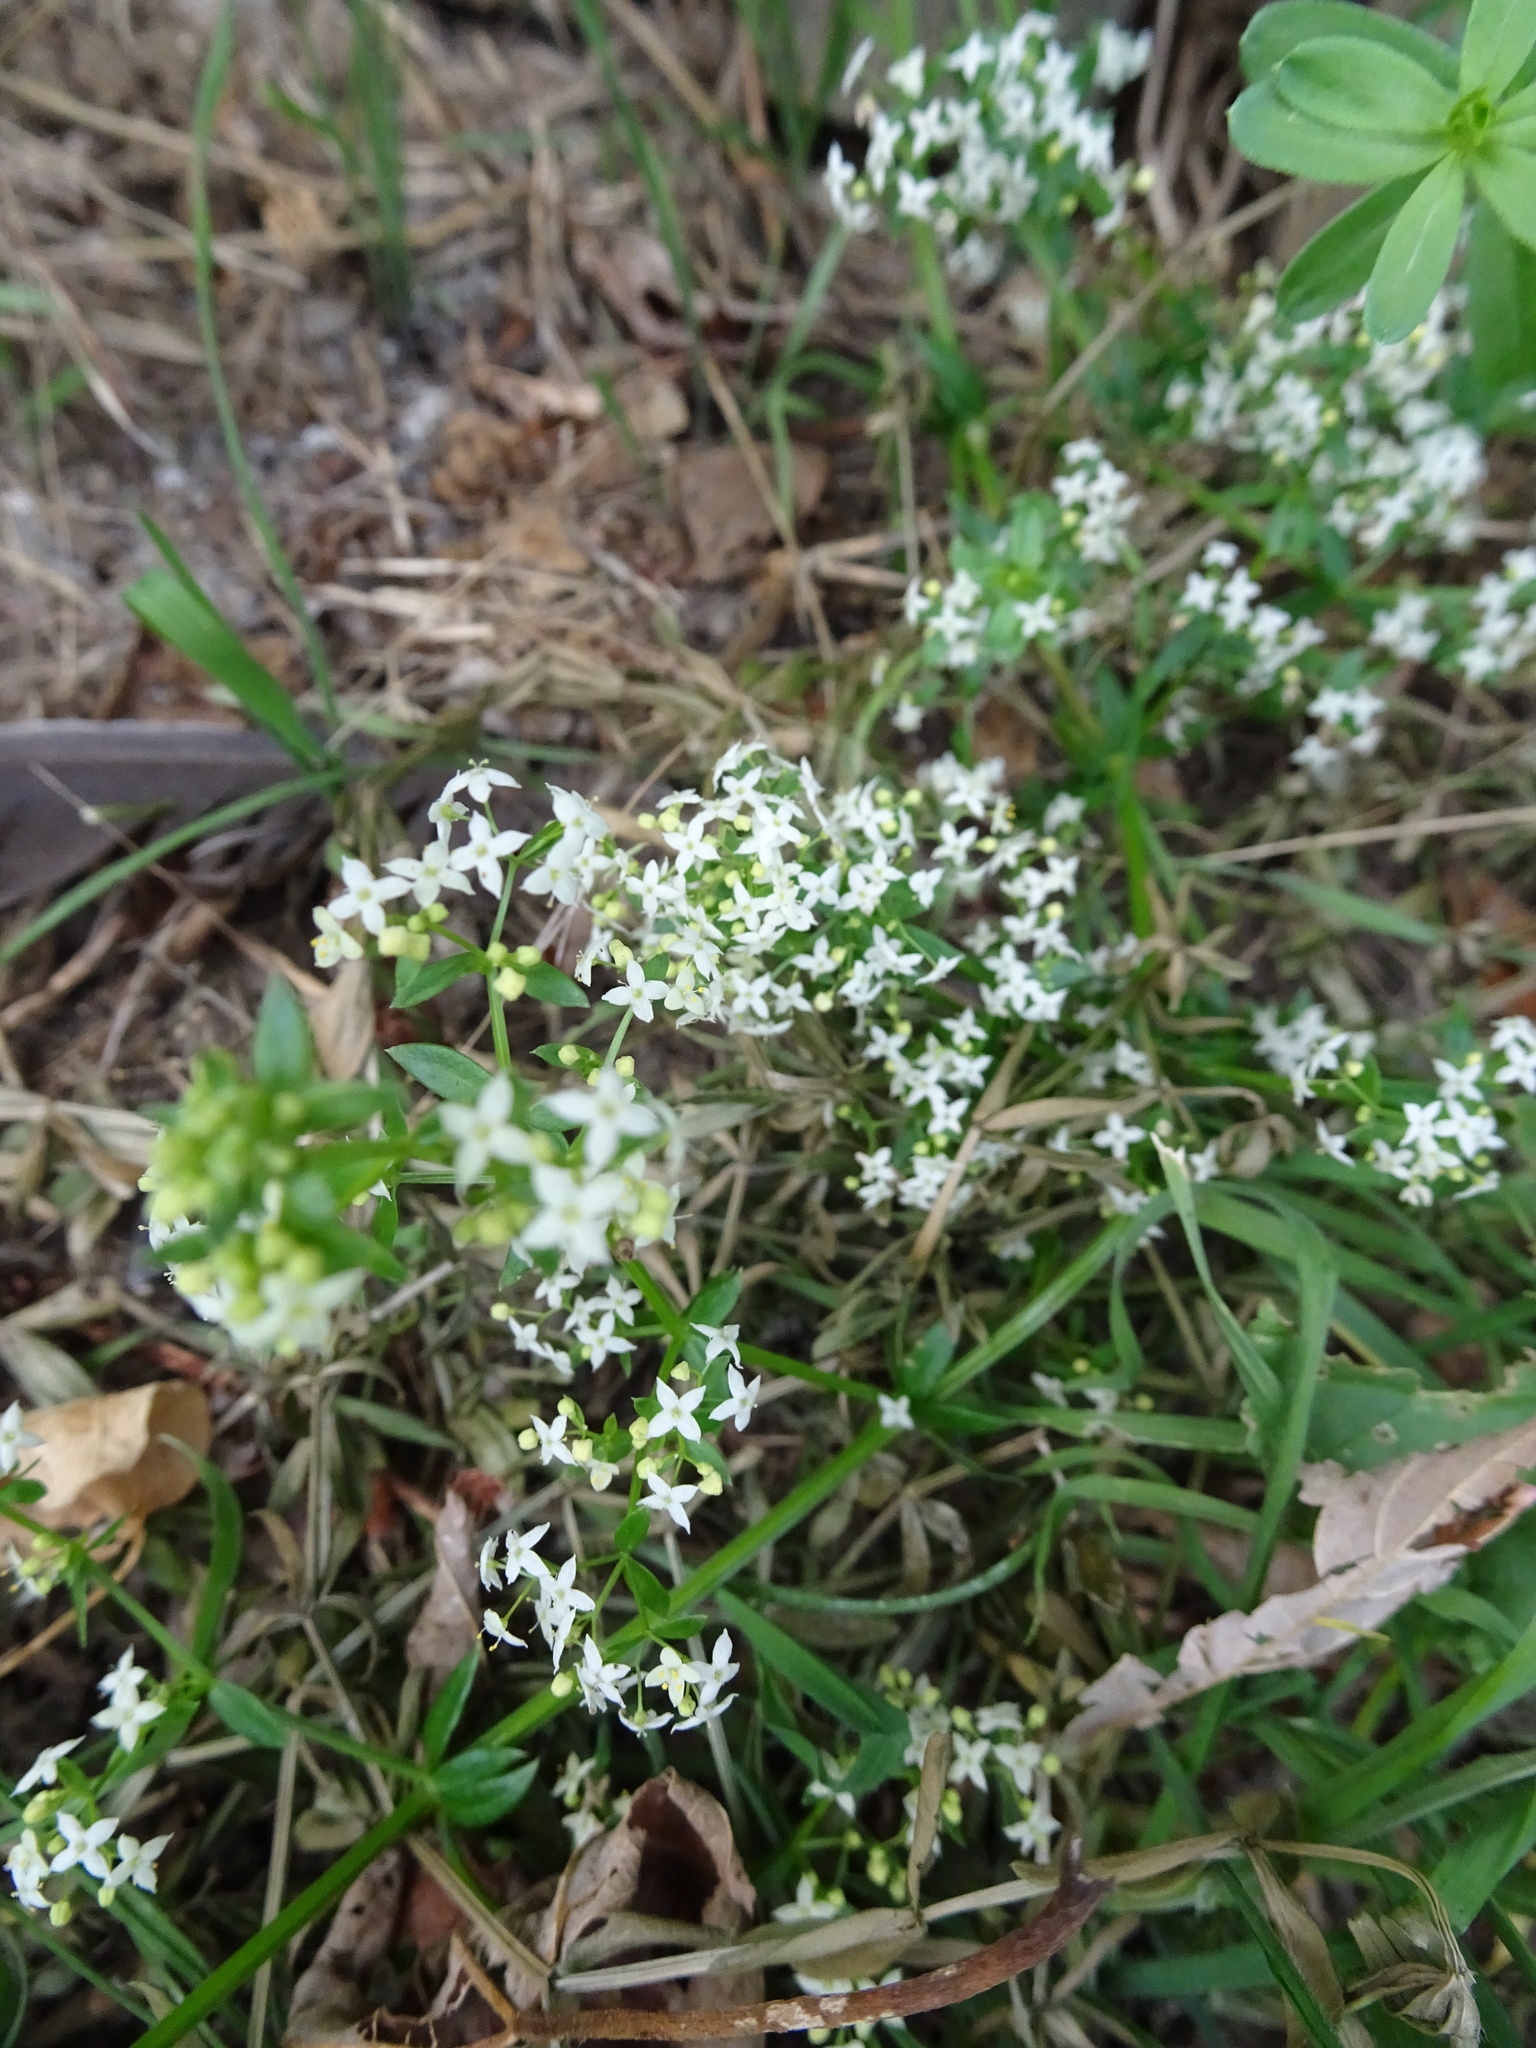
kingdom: Plantae
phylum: Tracheophyta
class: Magnoliopsida
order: Gentianales
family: Rubiaceae
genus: Galium
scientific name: Galium album
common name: White bedstraw
